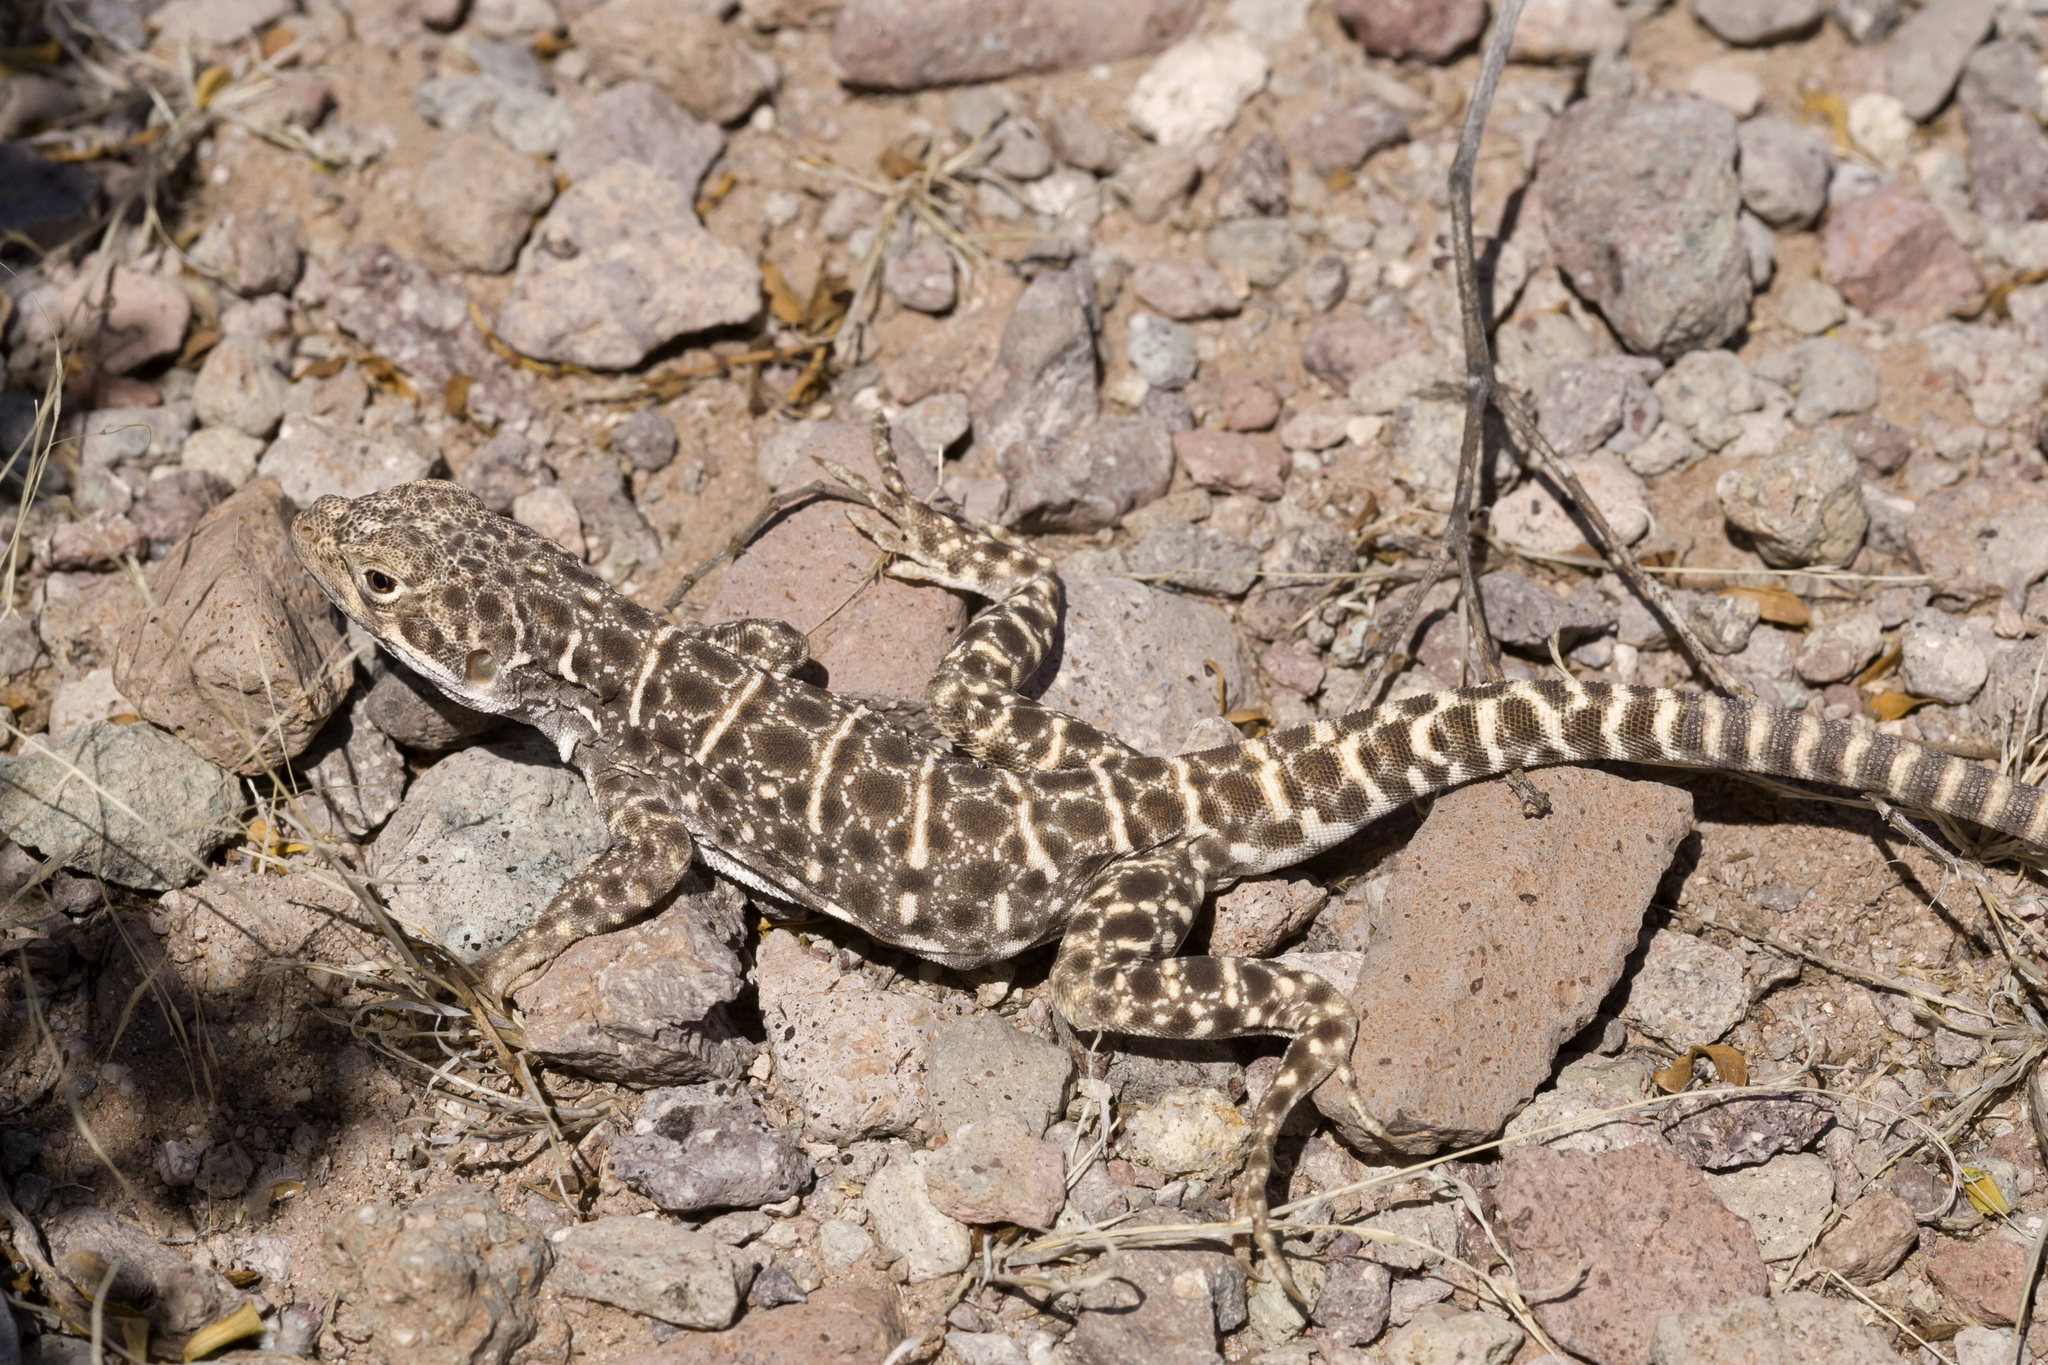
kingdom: Animalia
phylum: Chordata
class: Squamata
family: Crotaphytidae
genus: Gambelia
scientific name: Gambelia wislizenii
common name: Longnose leopard lizard
